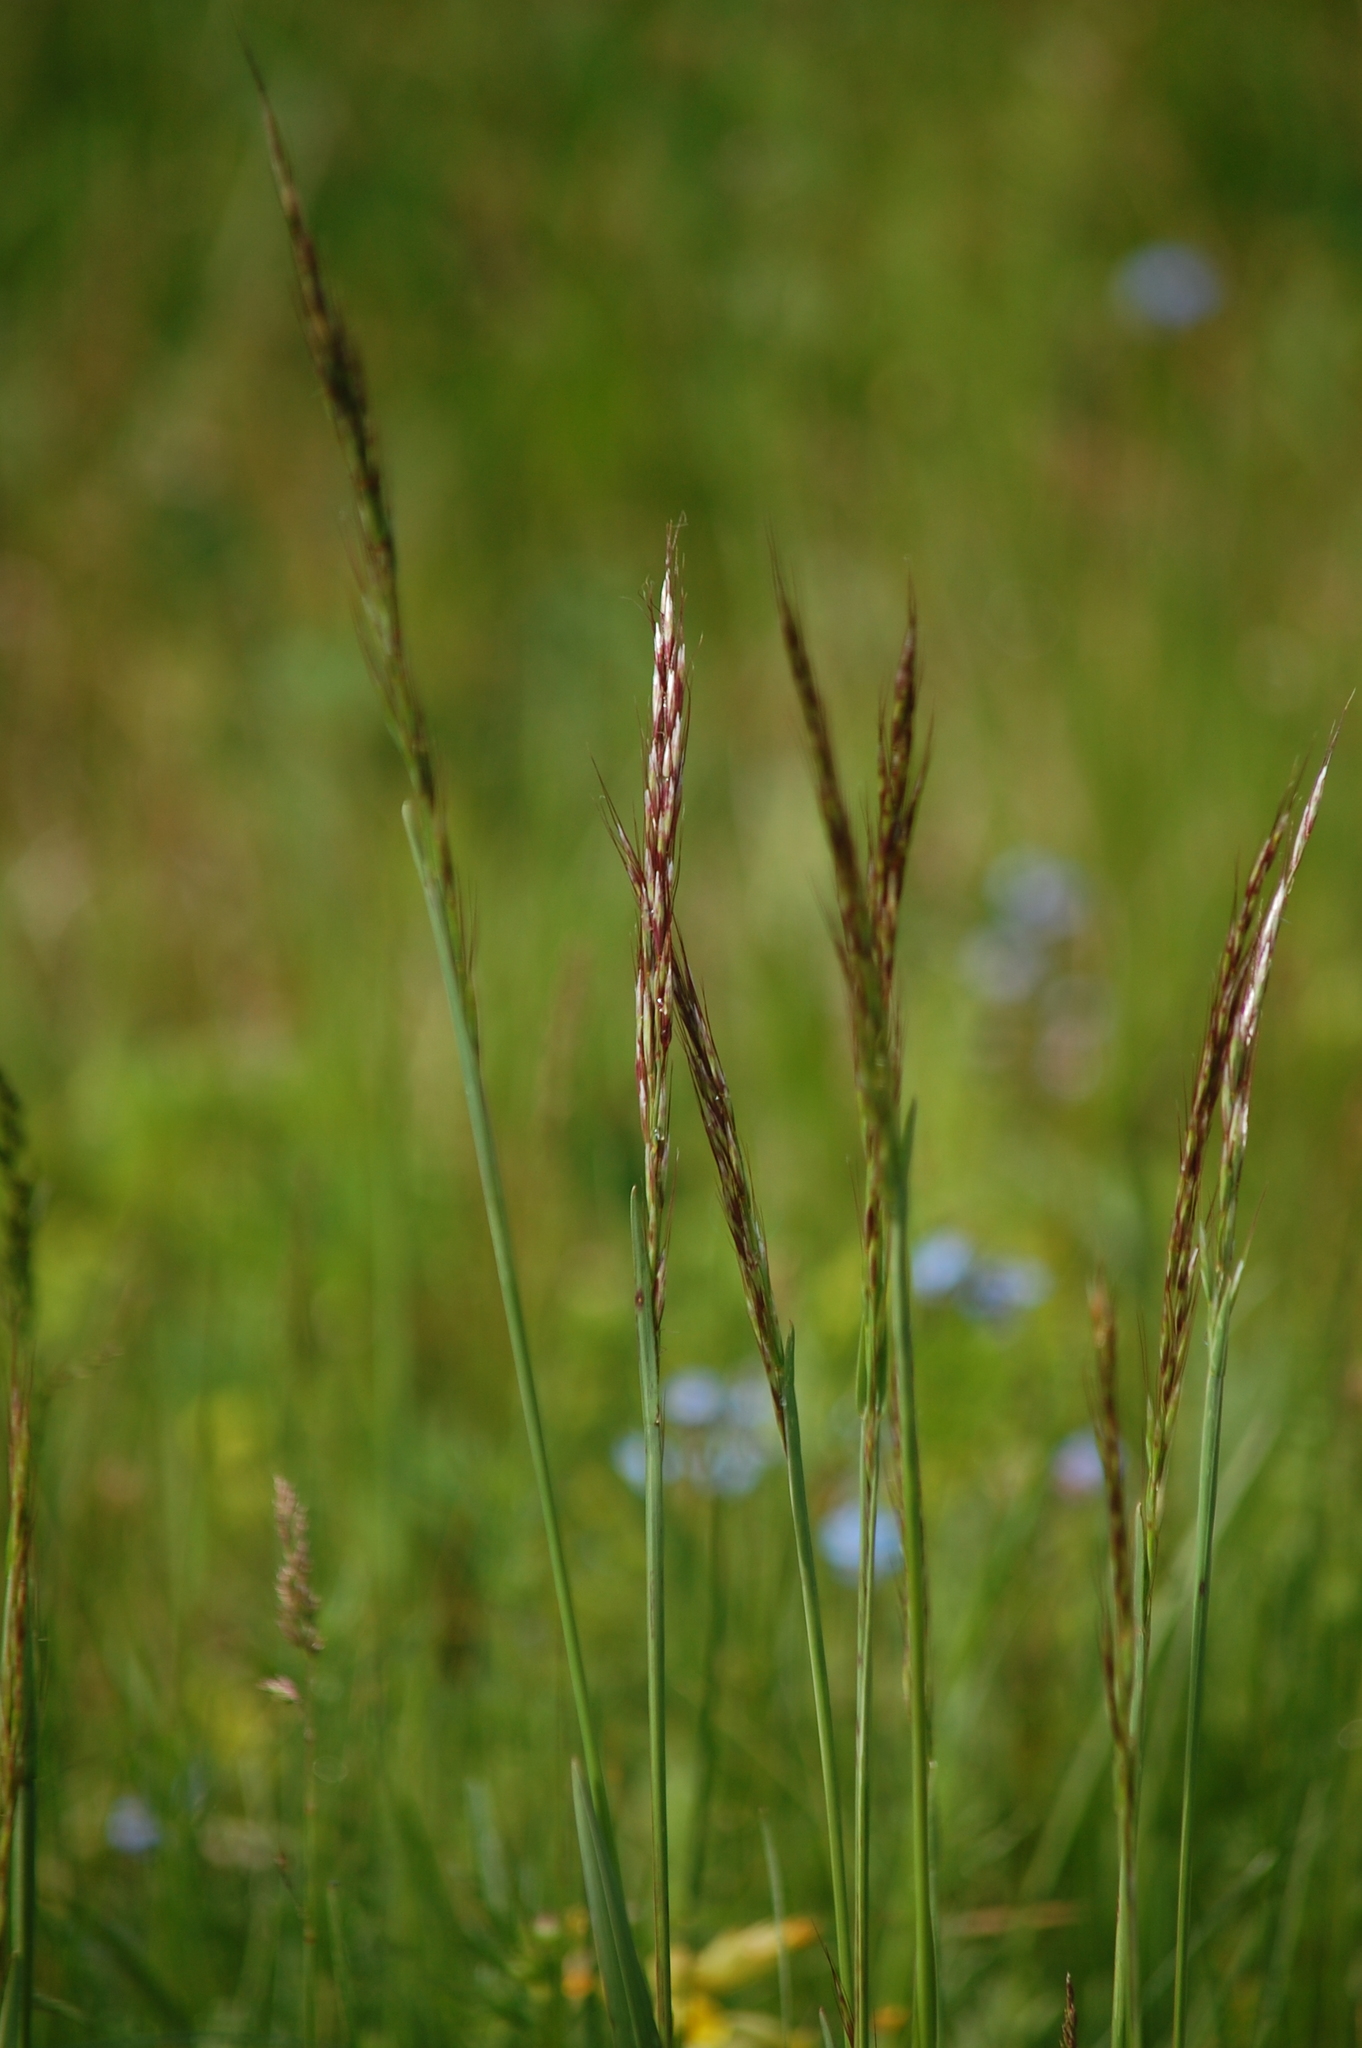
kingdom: Plantae
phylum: Tracheophyta
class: Liliopsida
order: Poales
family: Poaceae
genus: Avenula
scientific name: Avenula pubescens
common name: Downy alpine oatgrass
